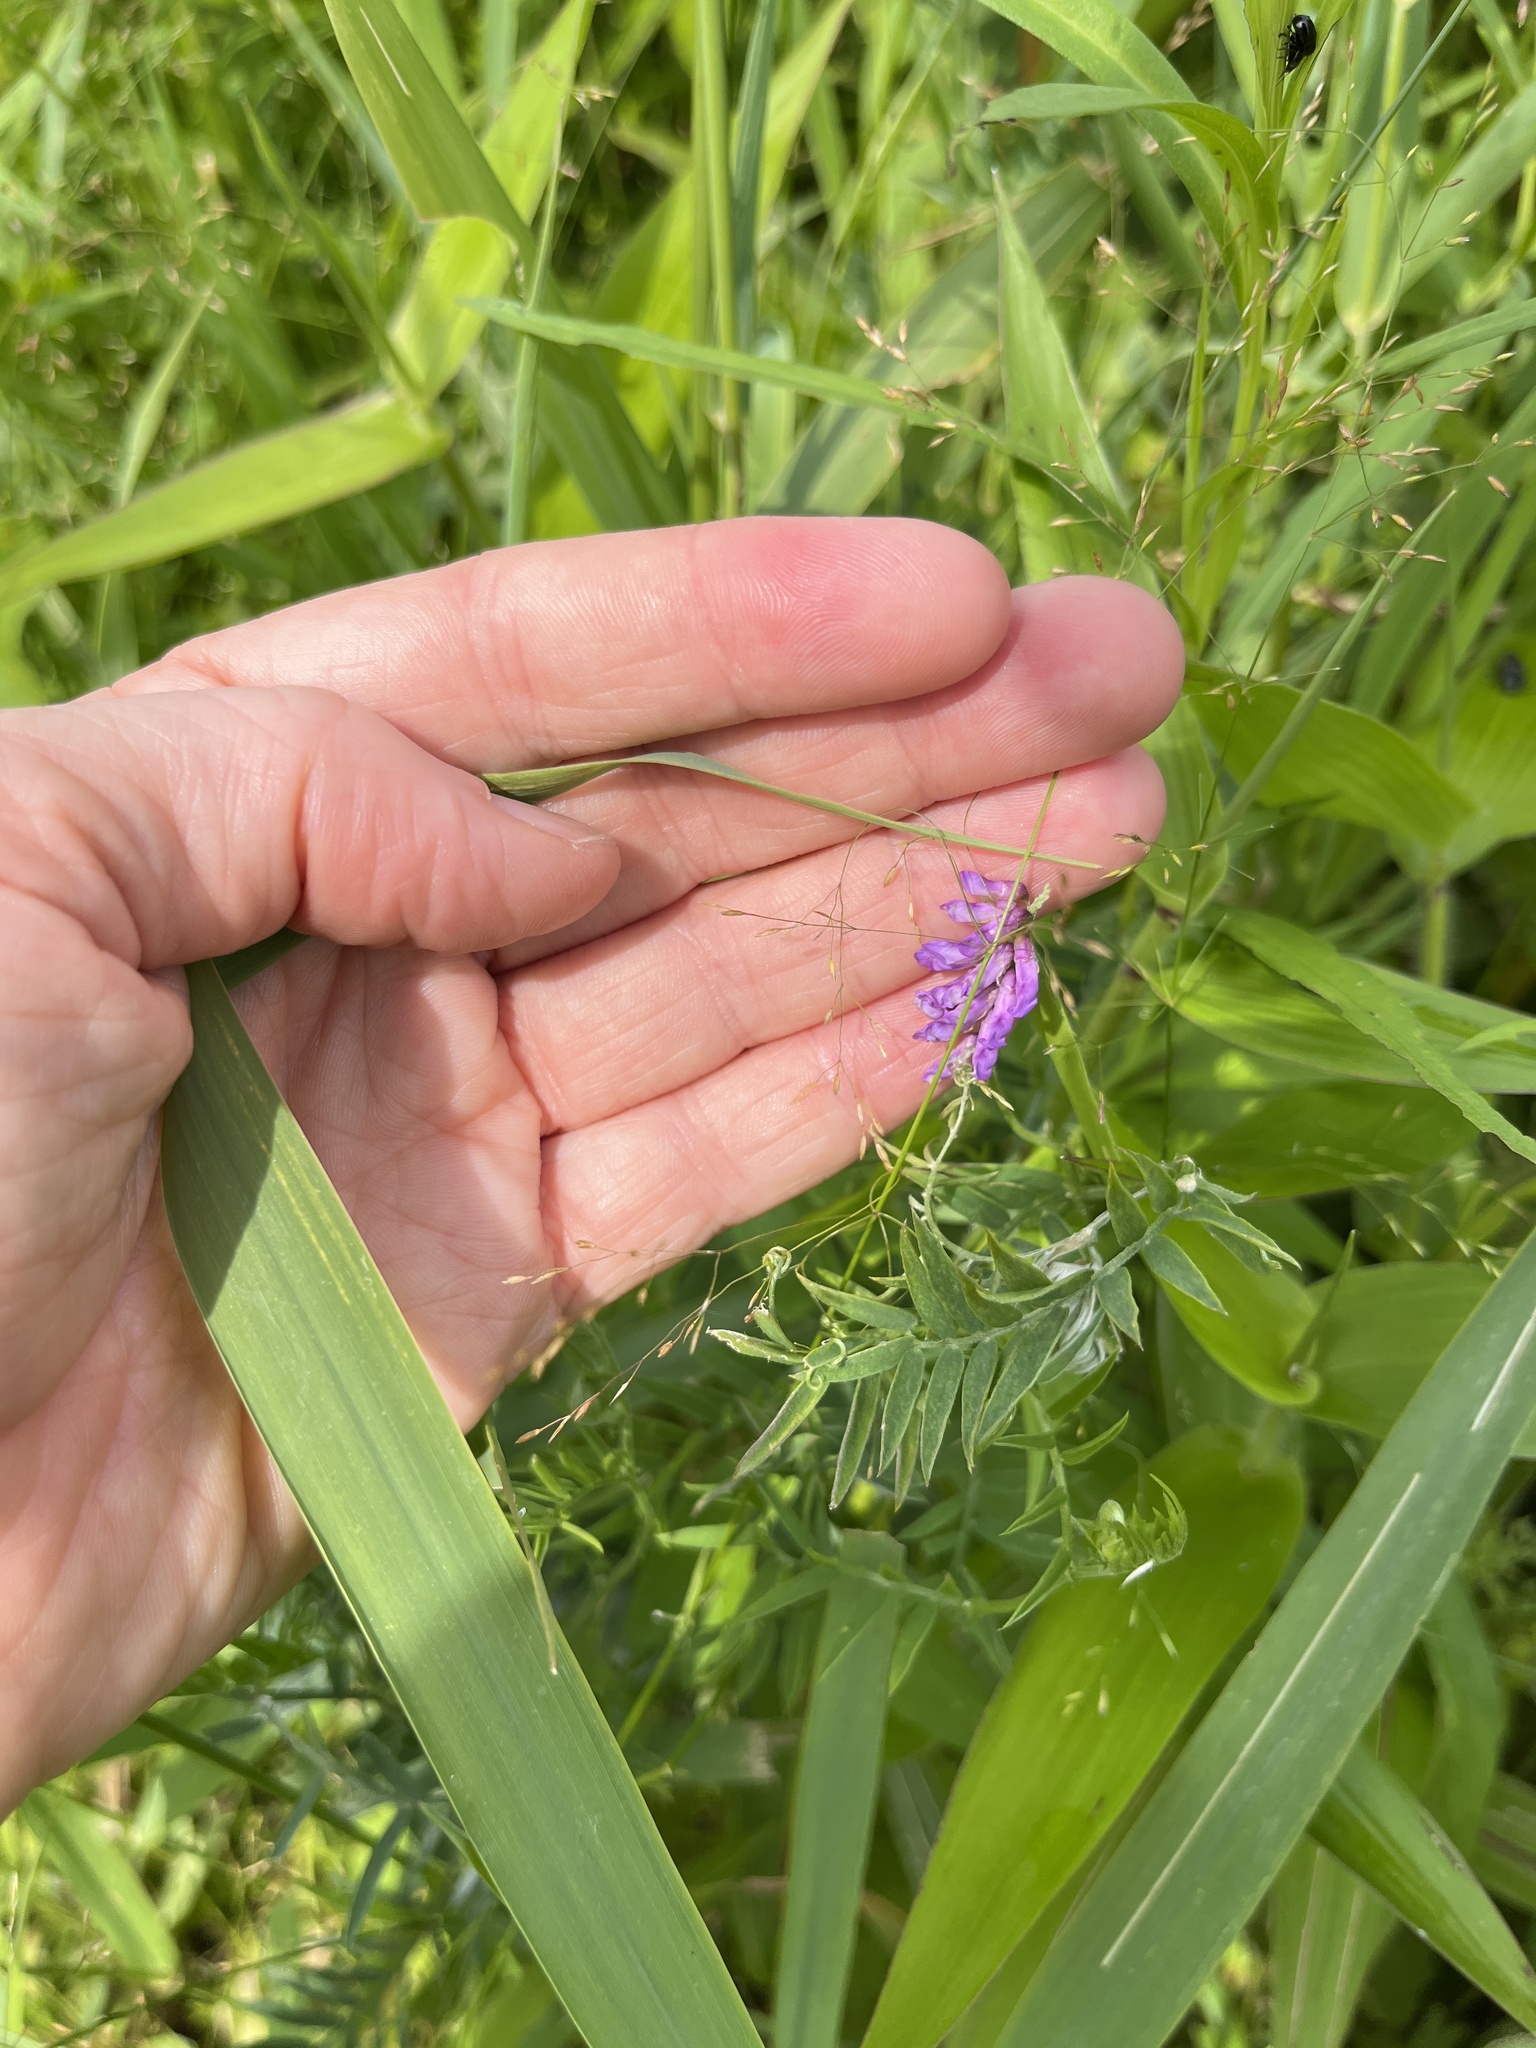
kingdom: Plantae
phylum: Tracheophyta
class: Magnoliopsida
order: Fabales
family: Fabaceae
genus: Vicia
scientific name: Vicia cracca
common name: Bird vetch
